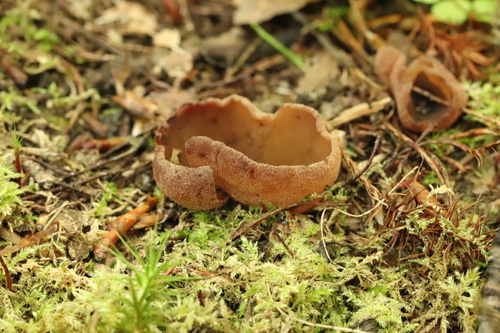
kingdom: Fungi
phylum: Ascomycota
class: Pezizomycetes
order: Pezizales
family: Pezizaceae
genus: Legaliana
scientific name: Legaliana
